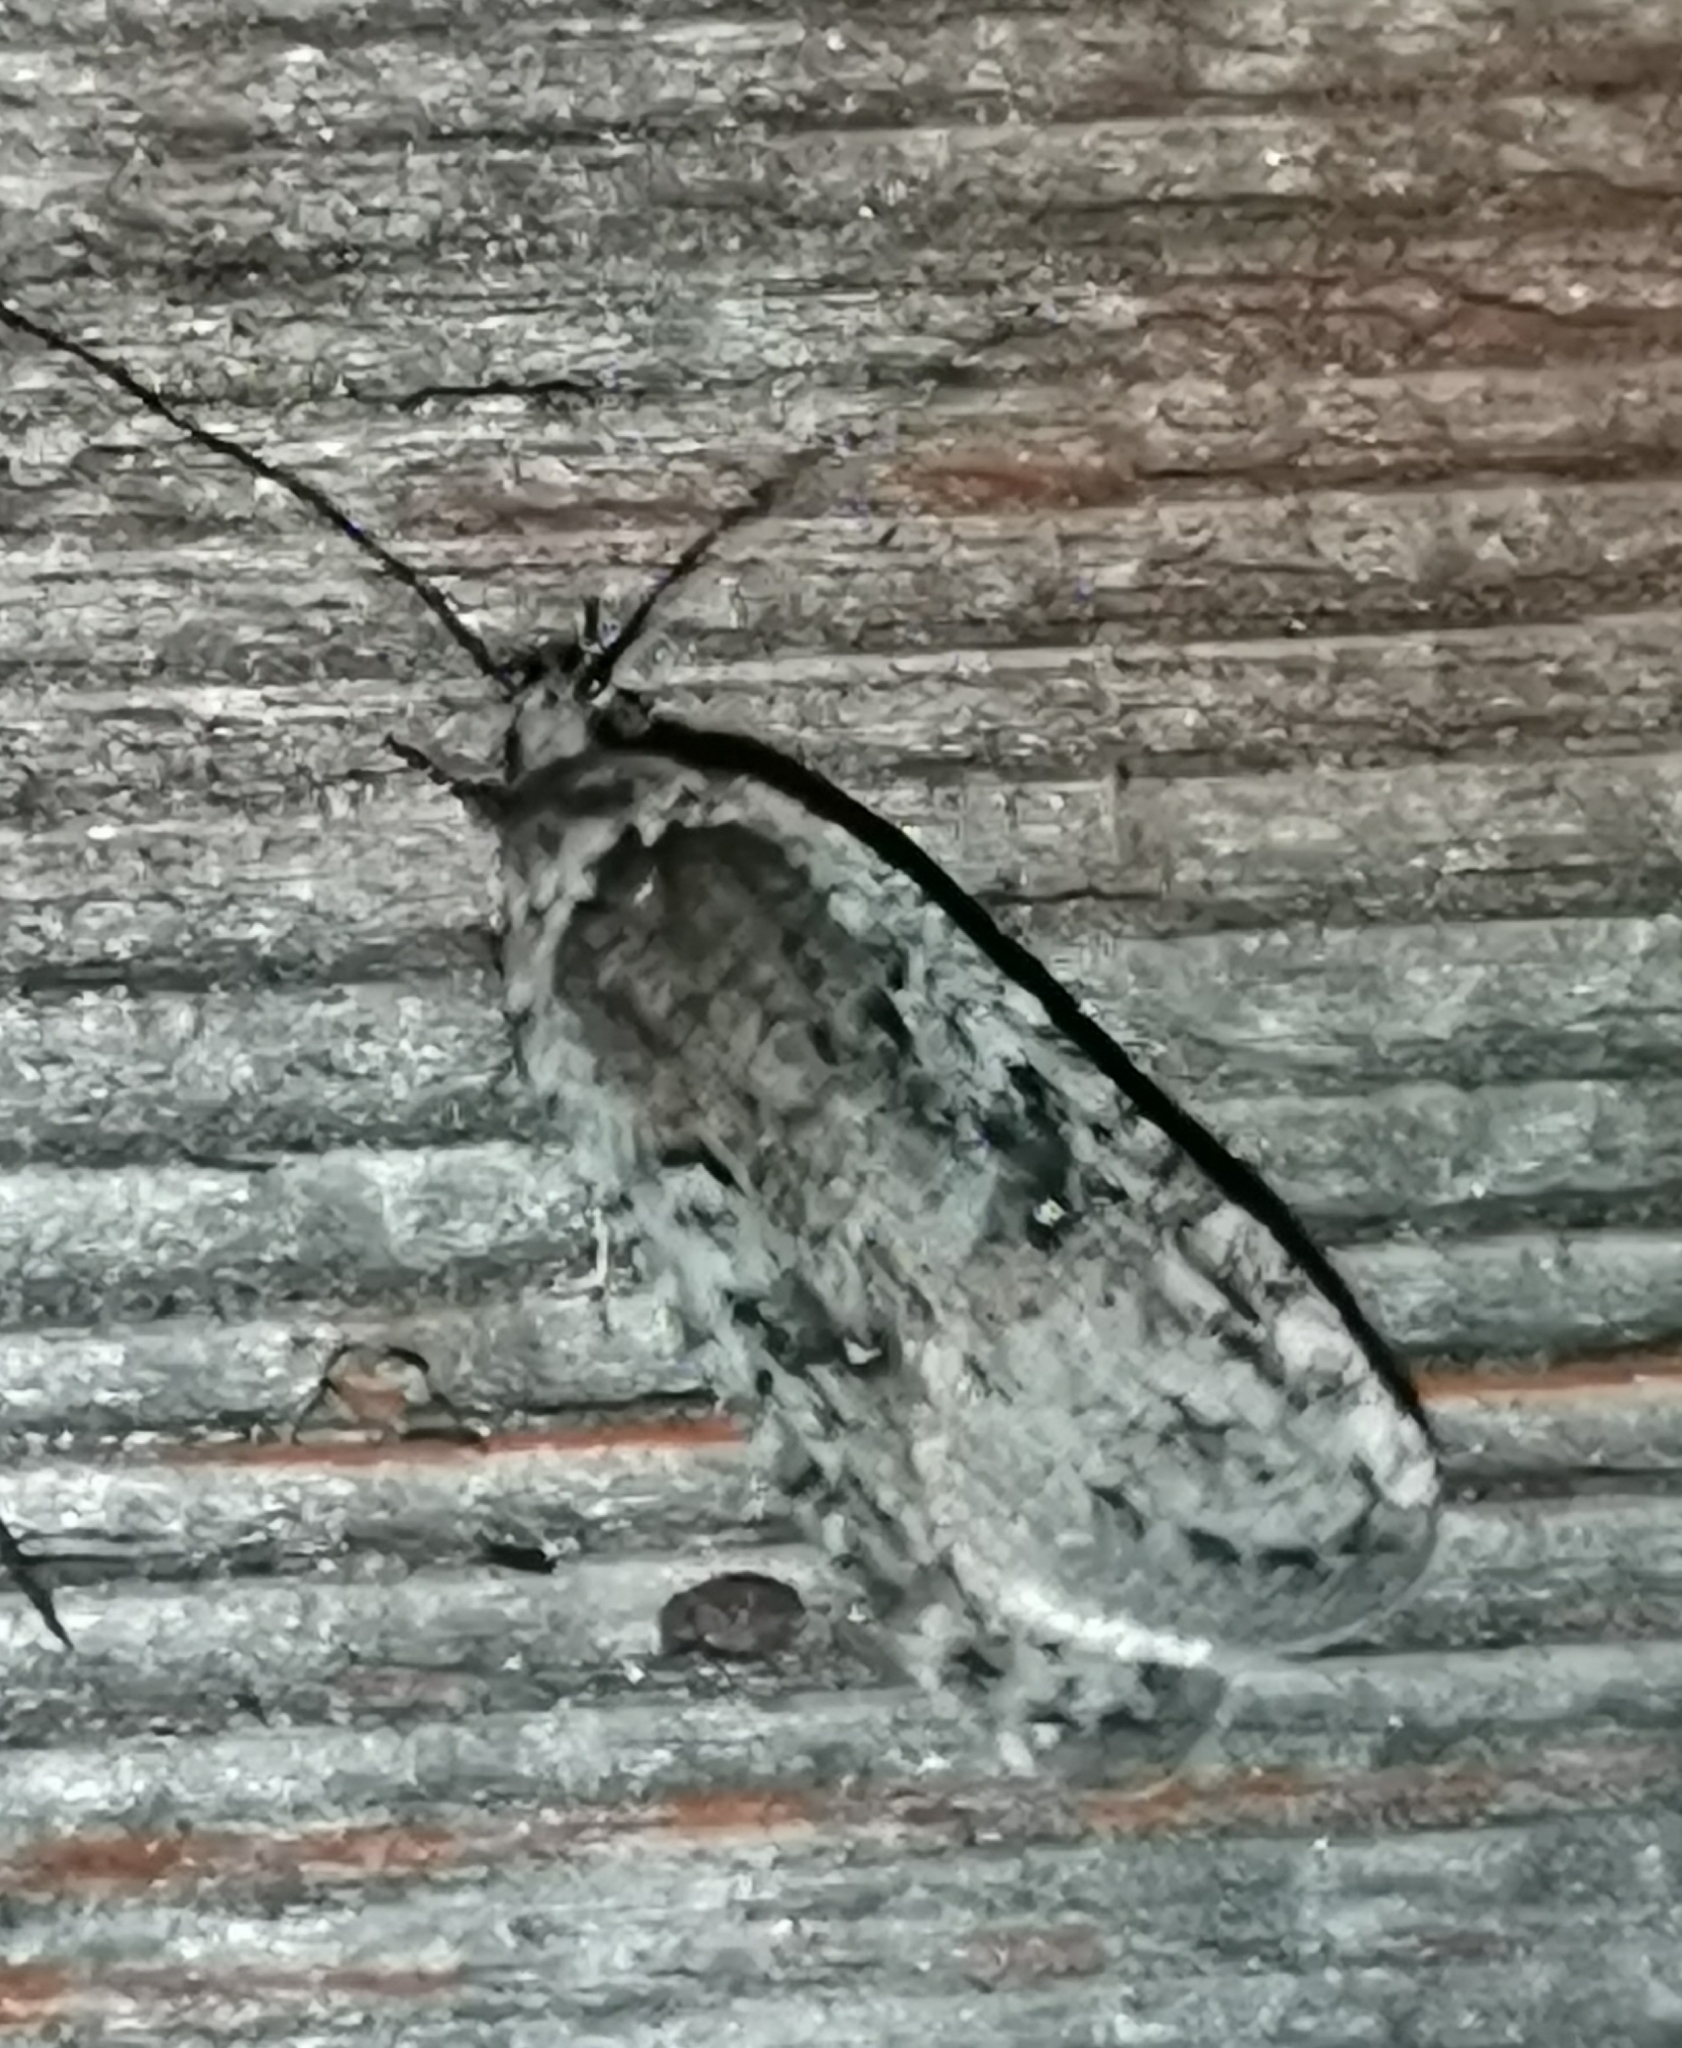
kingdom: Animalia
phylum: Arthropoda
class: Insecta
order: Lepidoptera
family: Depressariidae
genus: Exaeretia
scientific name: Exaeretia ciniflonella
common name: Scotch flat-body
